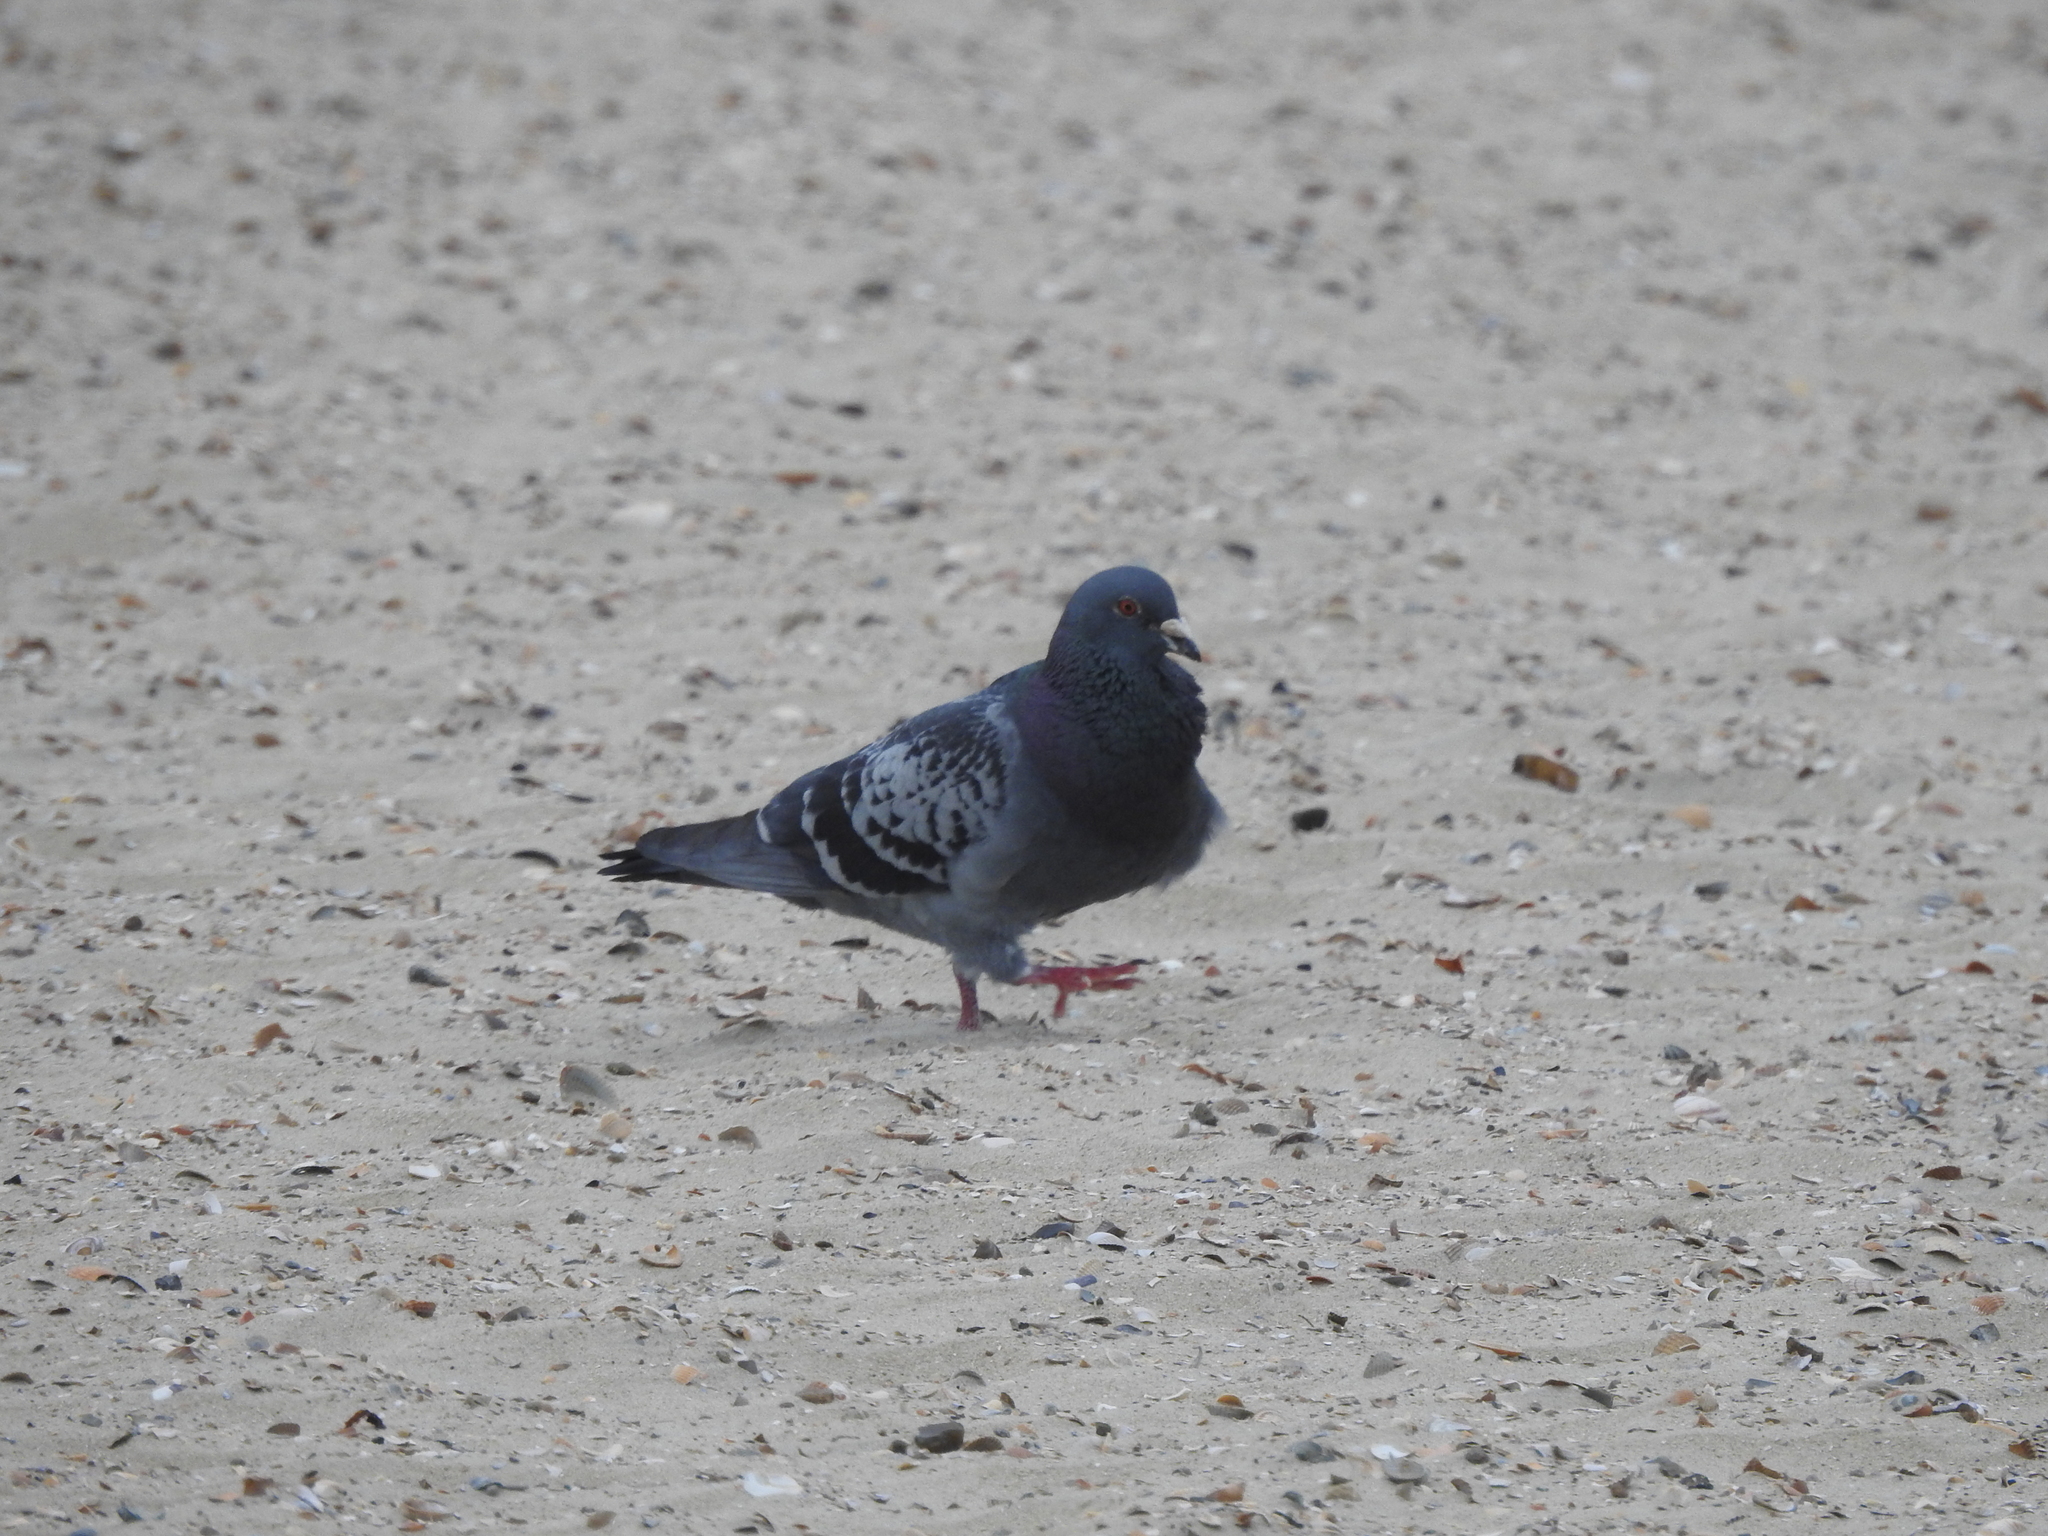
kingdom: Animalia
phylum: Chordata
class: Aves
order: Columbiformes
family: Columbidae
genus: Columba
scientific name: Columba livia
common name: Rock pigeon
